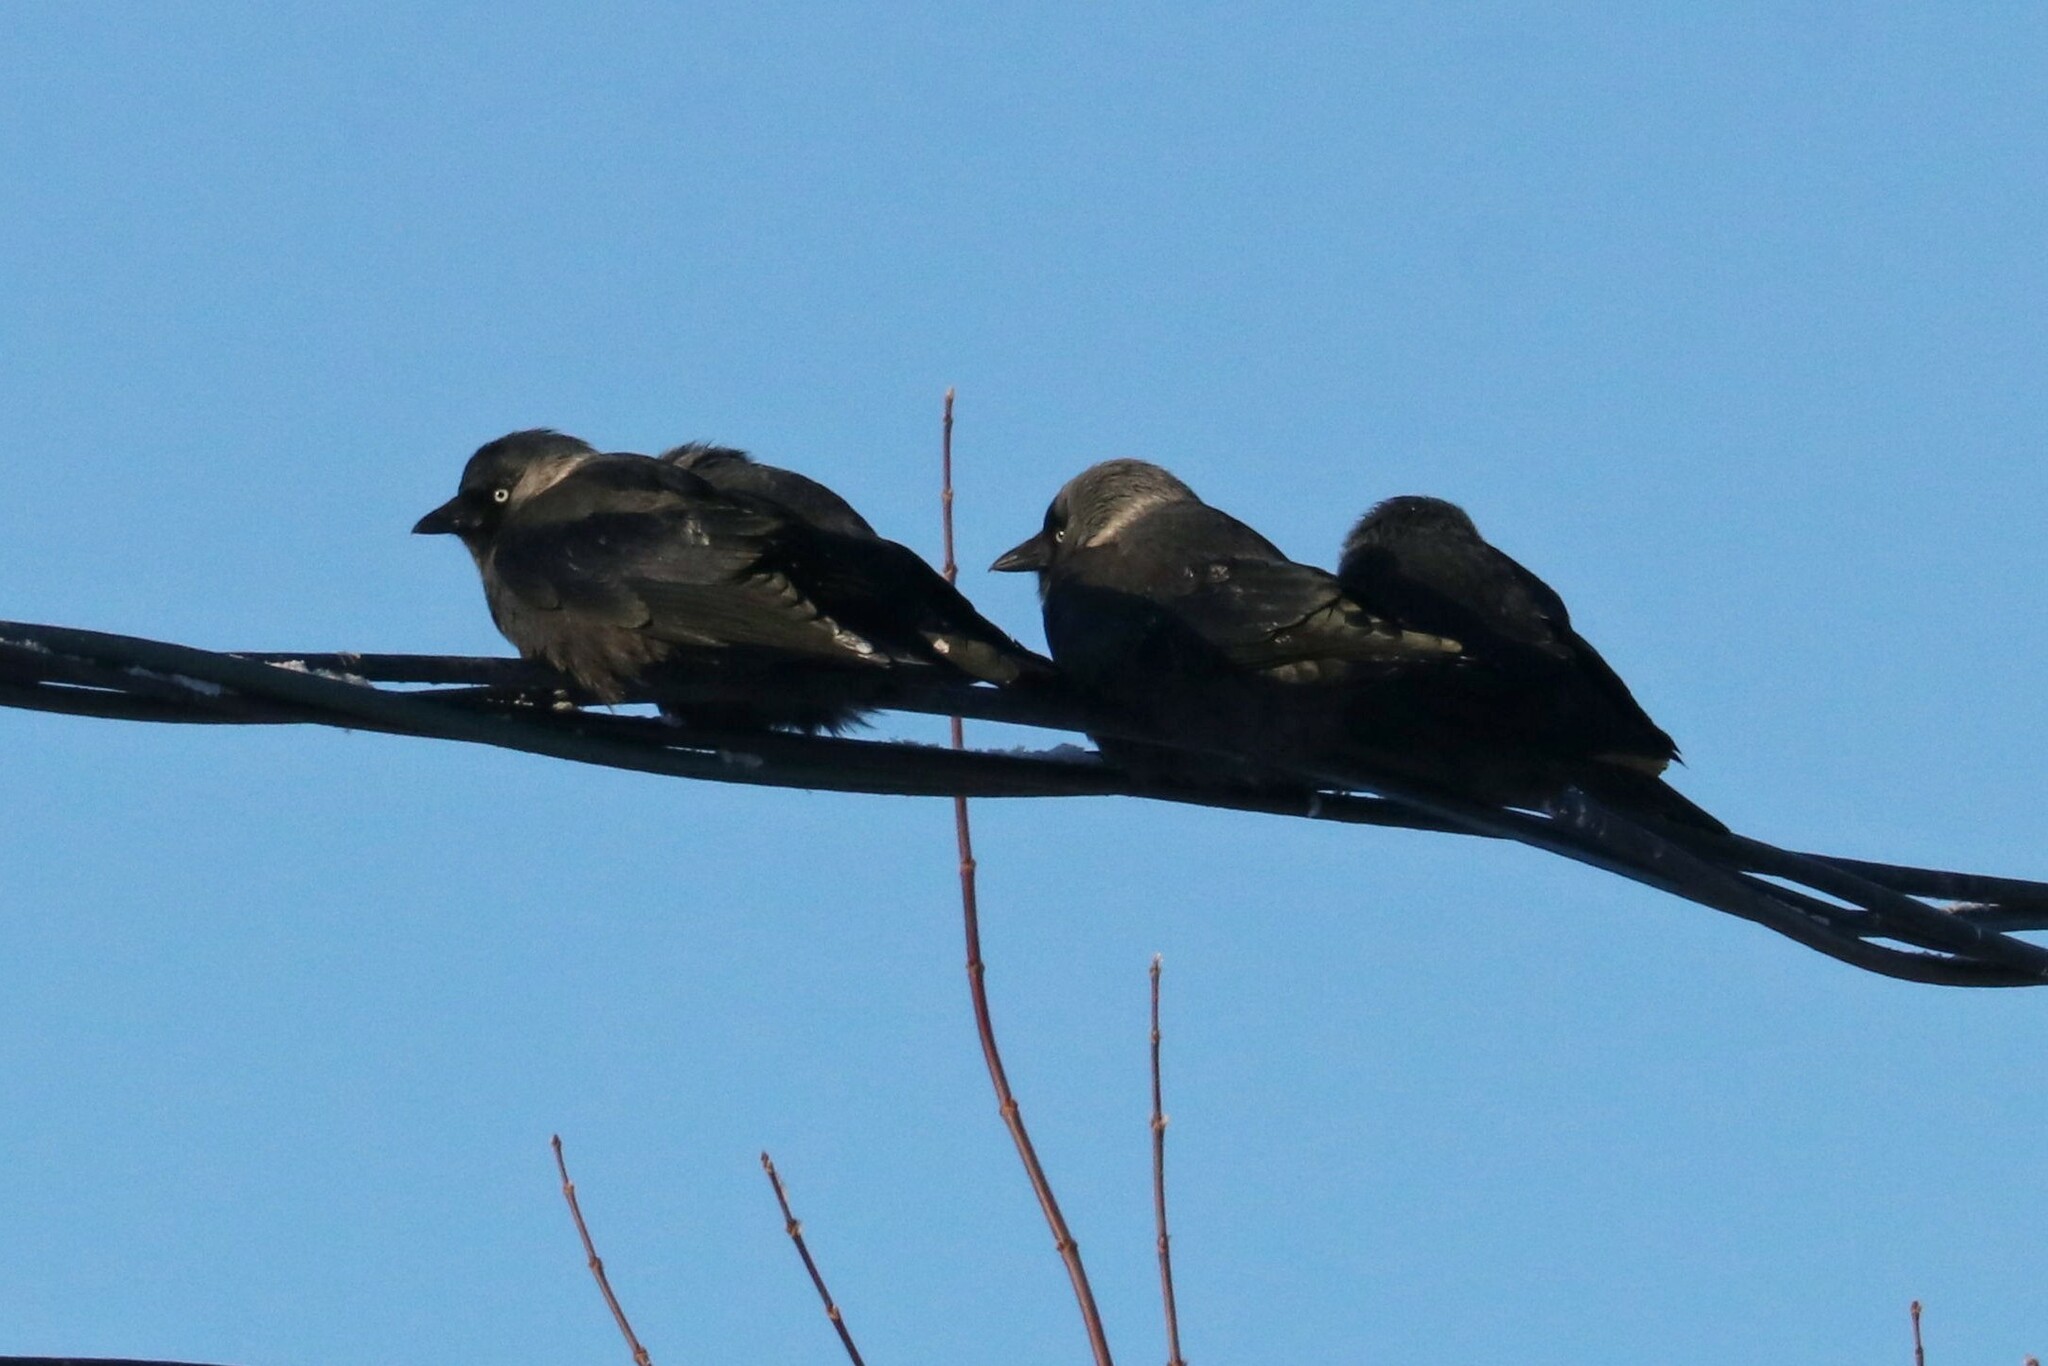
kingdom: Animalia
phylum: Chordata
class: Aves
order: Passeriformes
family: Corvidae
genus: Coloeus
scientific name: Coloeus monedula
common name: Western jackdaw
